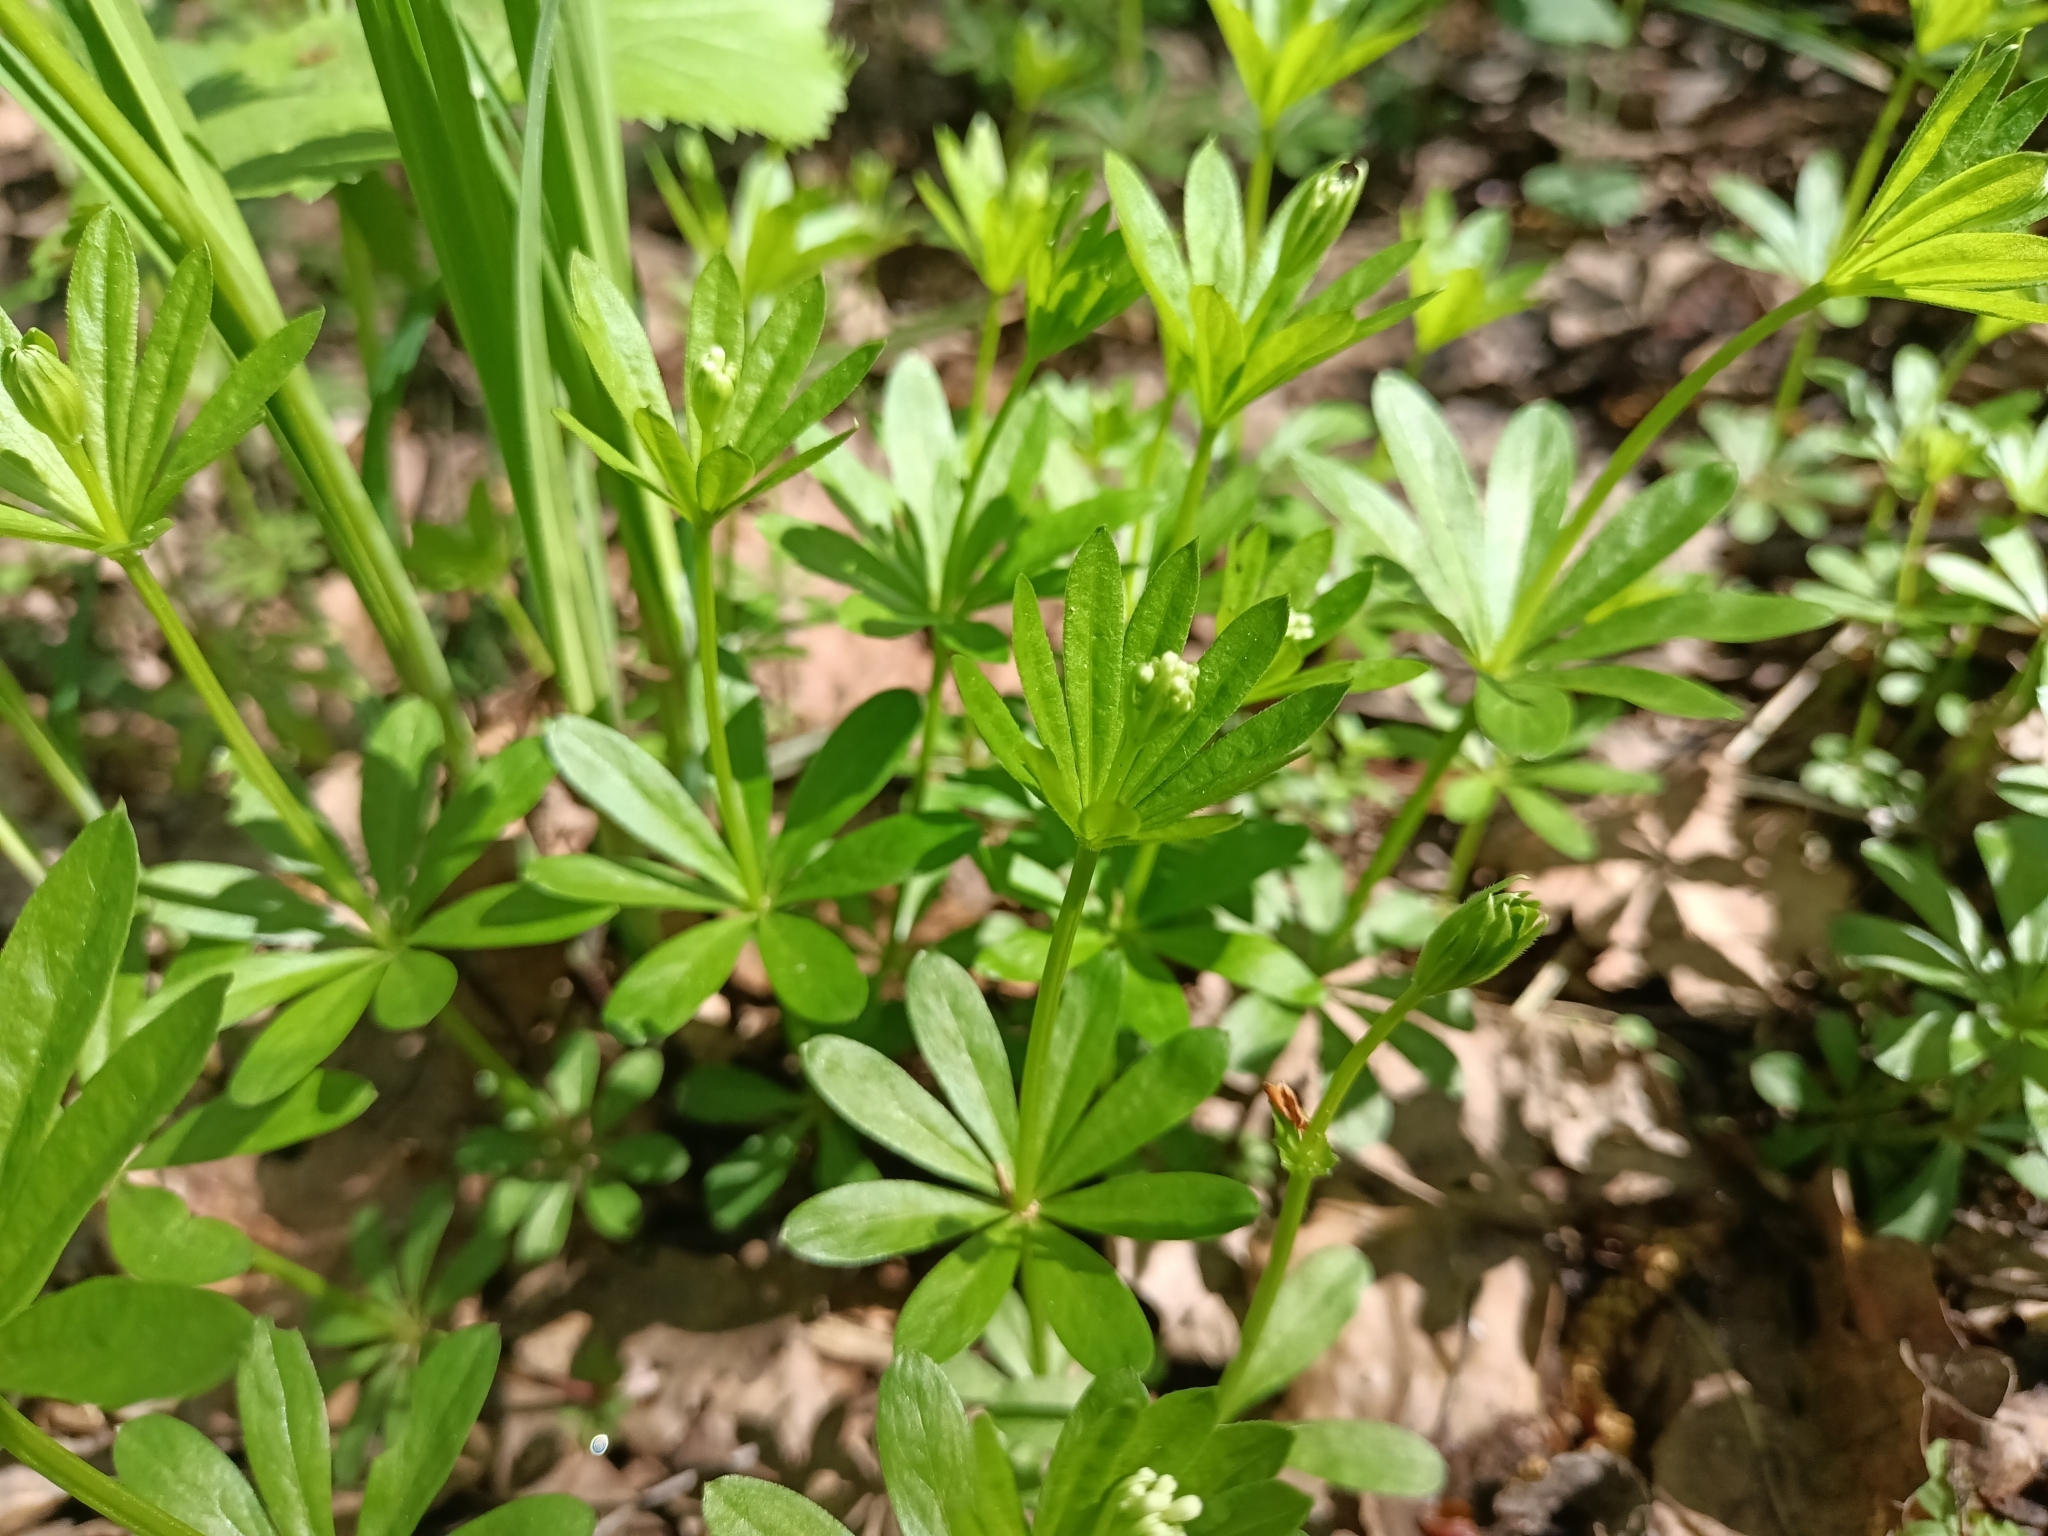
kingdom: Plantae
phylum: Tracheophyta
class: Magnoliopsida
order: Gentianales
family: Rubiaceae
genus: Galium
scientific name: Galium odoratum
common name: Sweet woodruff
